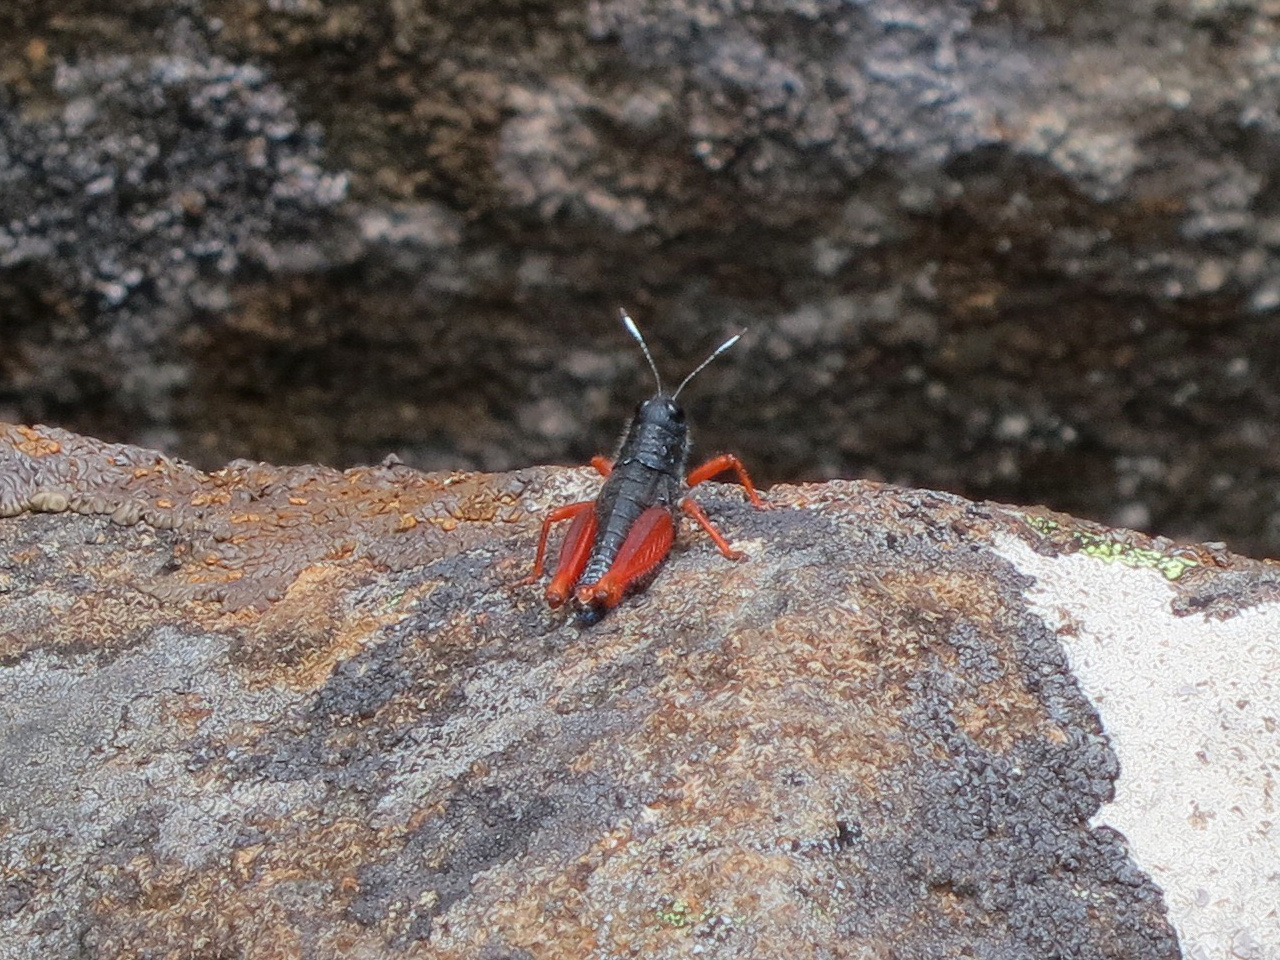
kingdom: Animalia
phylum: Arthropoda
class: Insecta
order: Orthoptera
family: Acrididae
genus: Tasmanalpina
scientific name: Tasmanalpina clavata
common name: Tasmanian velvet grasshopper
